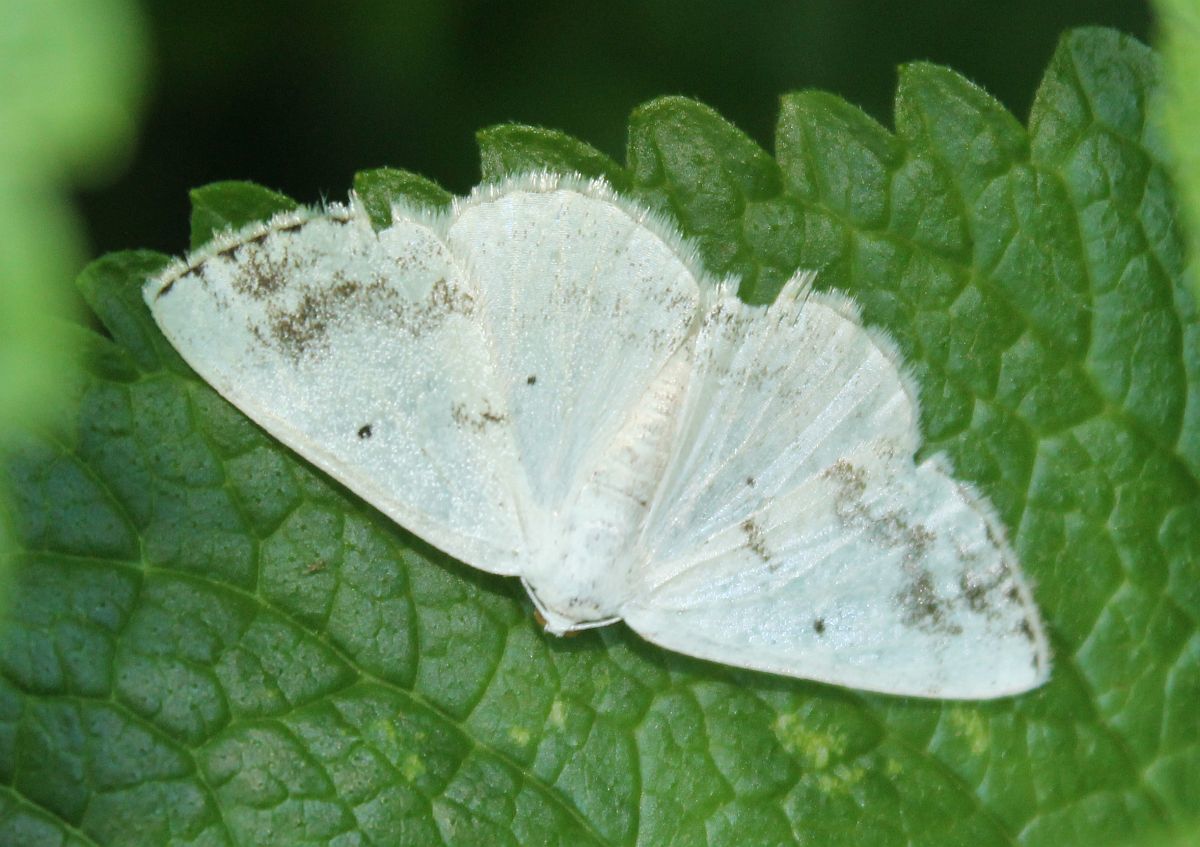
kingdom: Animalia
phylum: Arthropoda
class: Insecta
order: Lepidoptera
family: Geometridae
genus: Lomographa
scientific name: Lomographa temerata
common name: Clouded silver
